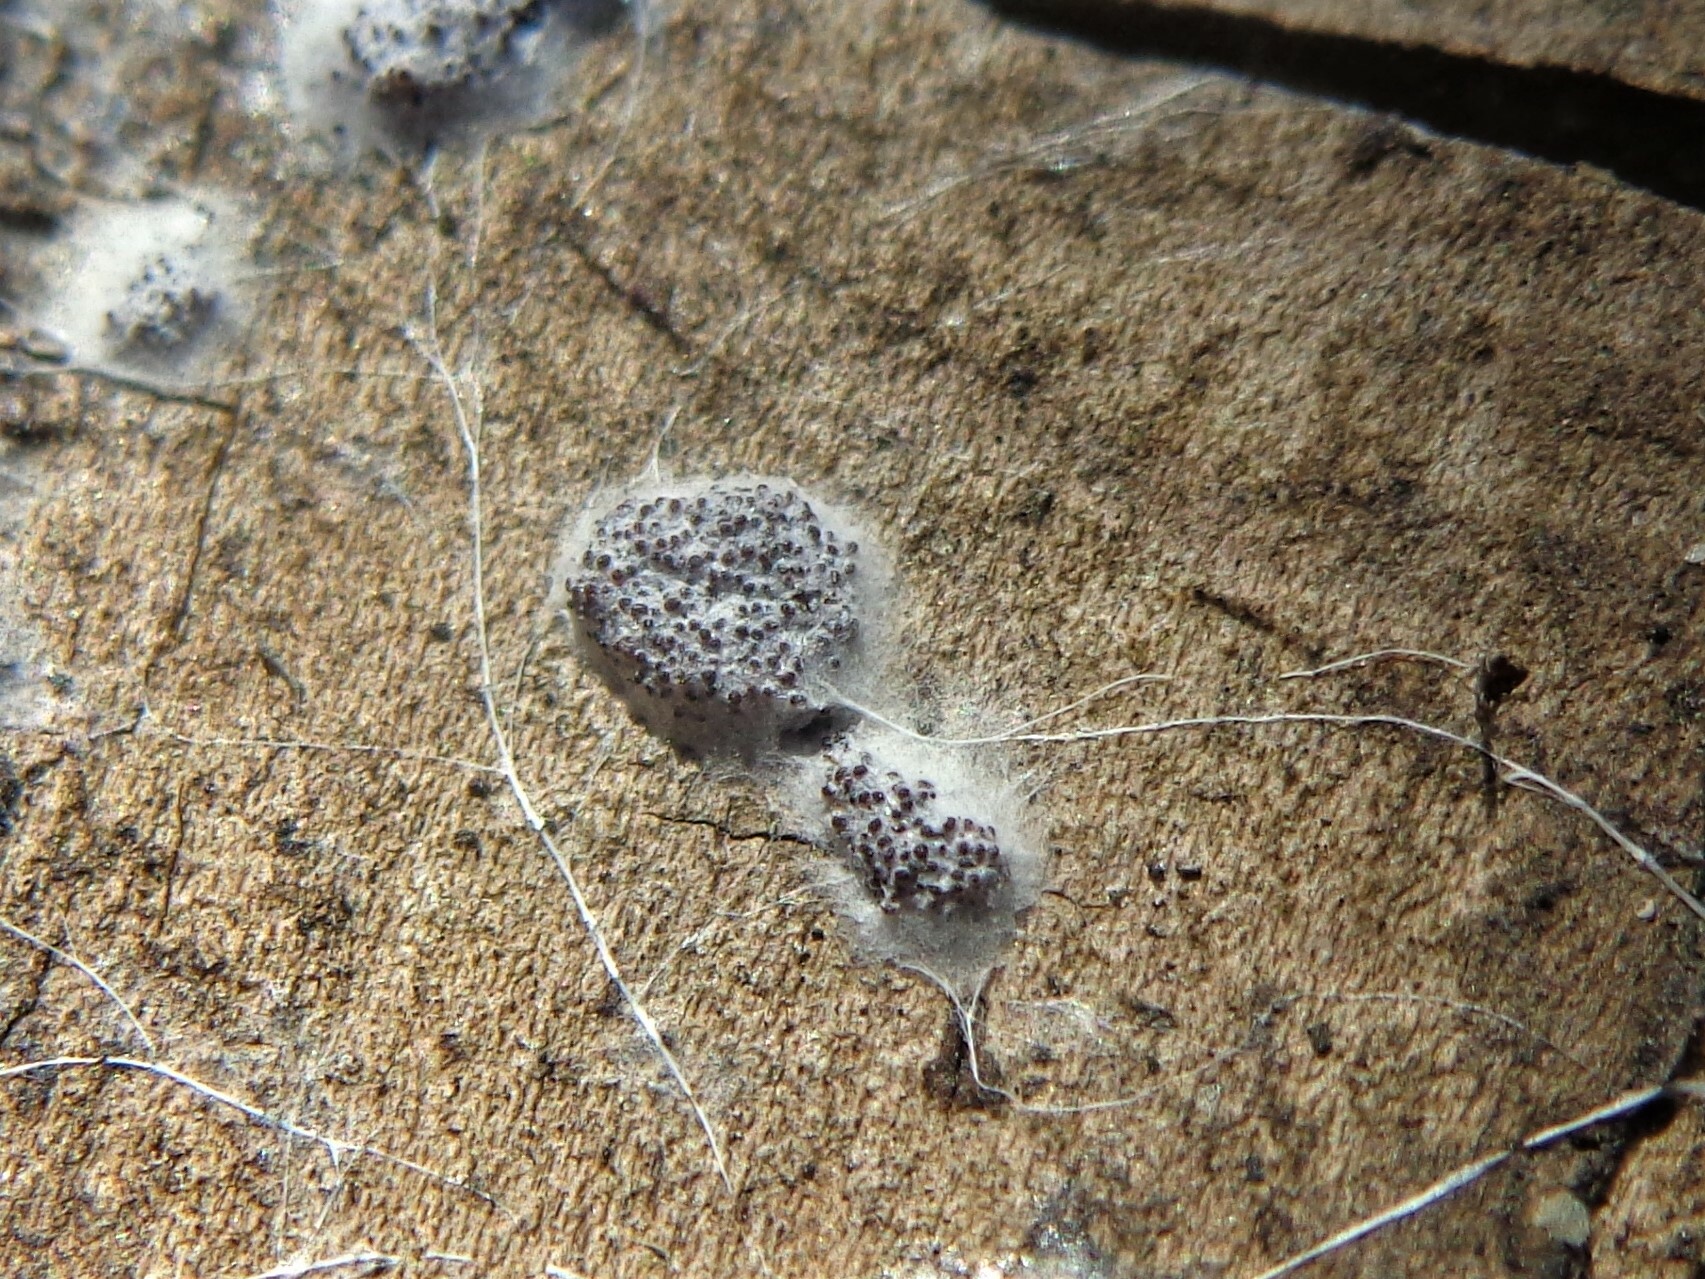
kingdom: Fungi
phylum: Basidiomycota
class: Agaricomycetes
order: Agaricales
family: Stephanosporaceae
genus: Myriococcum
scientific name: Myriococcum praecox
